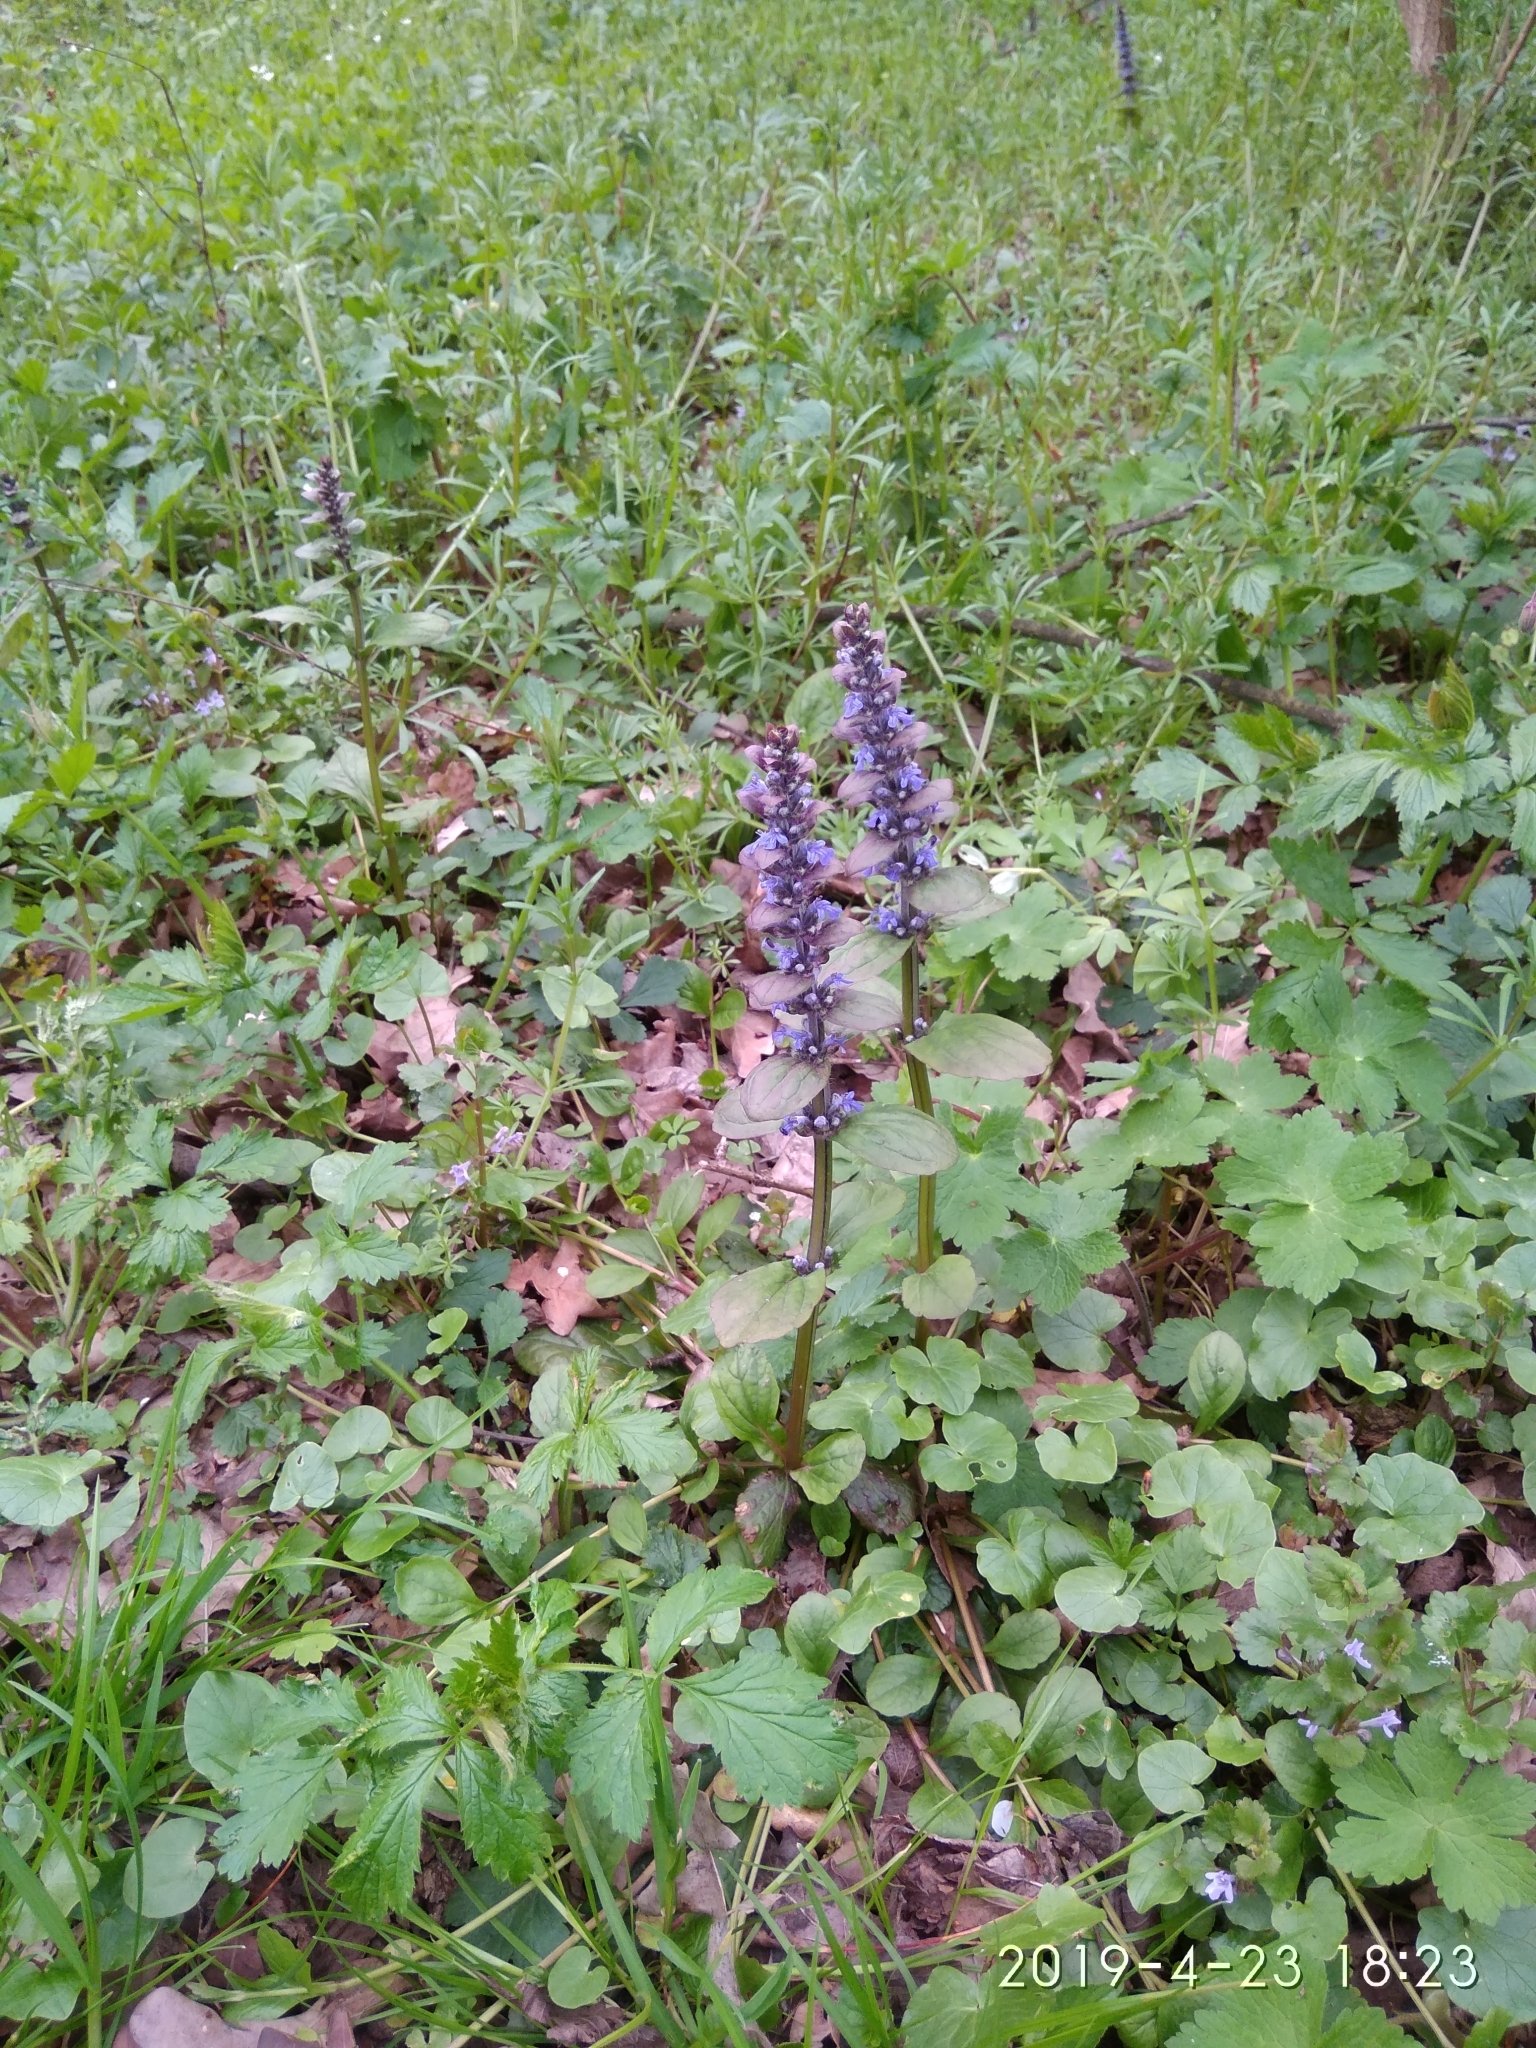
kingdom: Plantae
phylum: Tracheophyta
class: Magnoliopsida
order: Lamiales
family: Lamiaceae
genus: Ajuga
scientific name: Ajuga reptans
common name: Bugle
